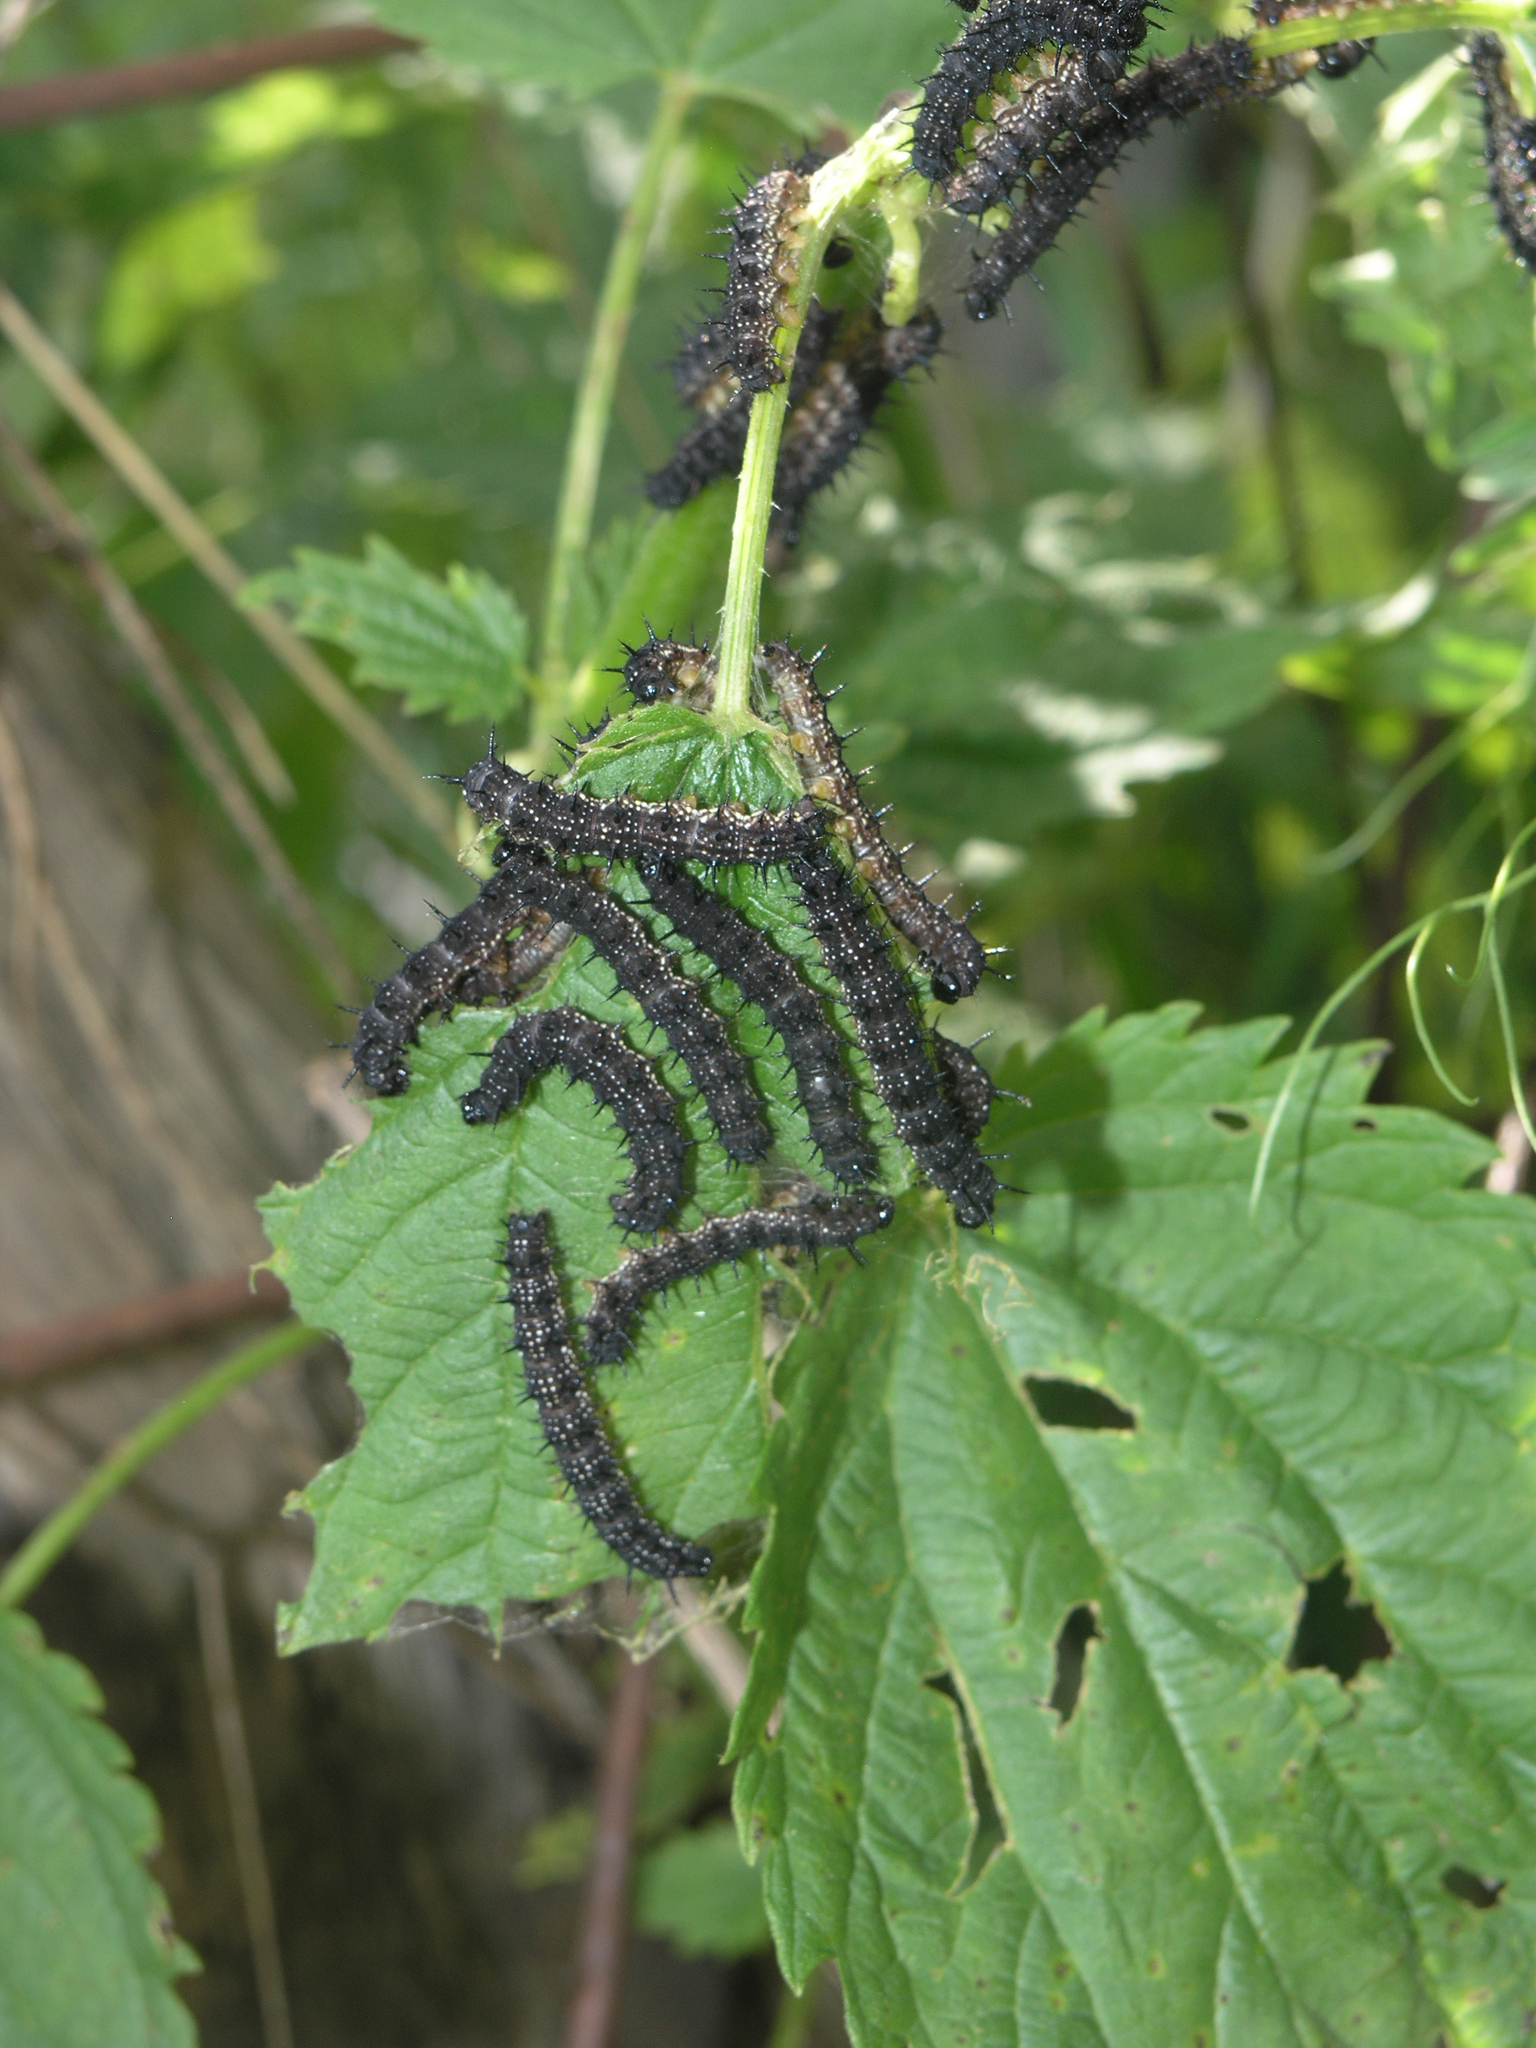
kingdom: Plantae
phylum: Tracheophyta
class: Magnoliopsida
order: Rosales
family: Urticaceae
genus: Urtica
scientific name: Urtica dioica
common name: Common nettle
